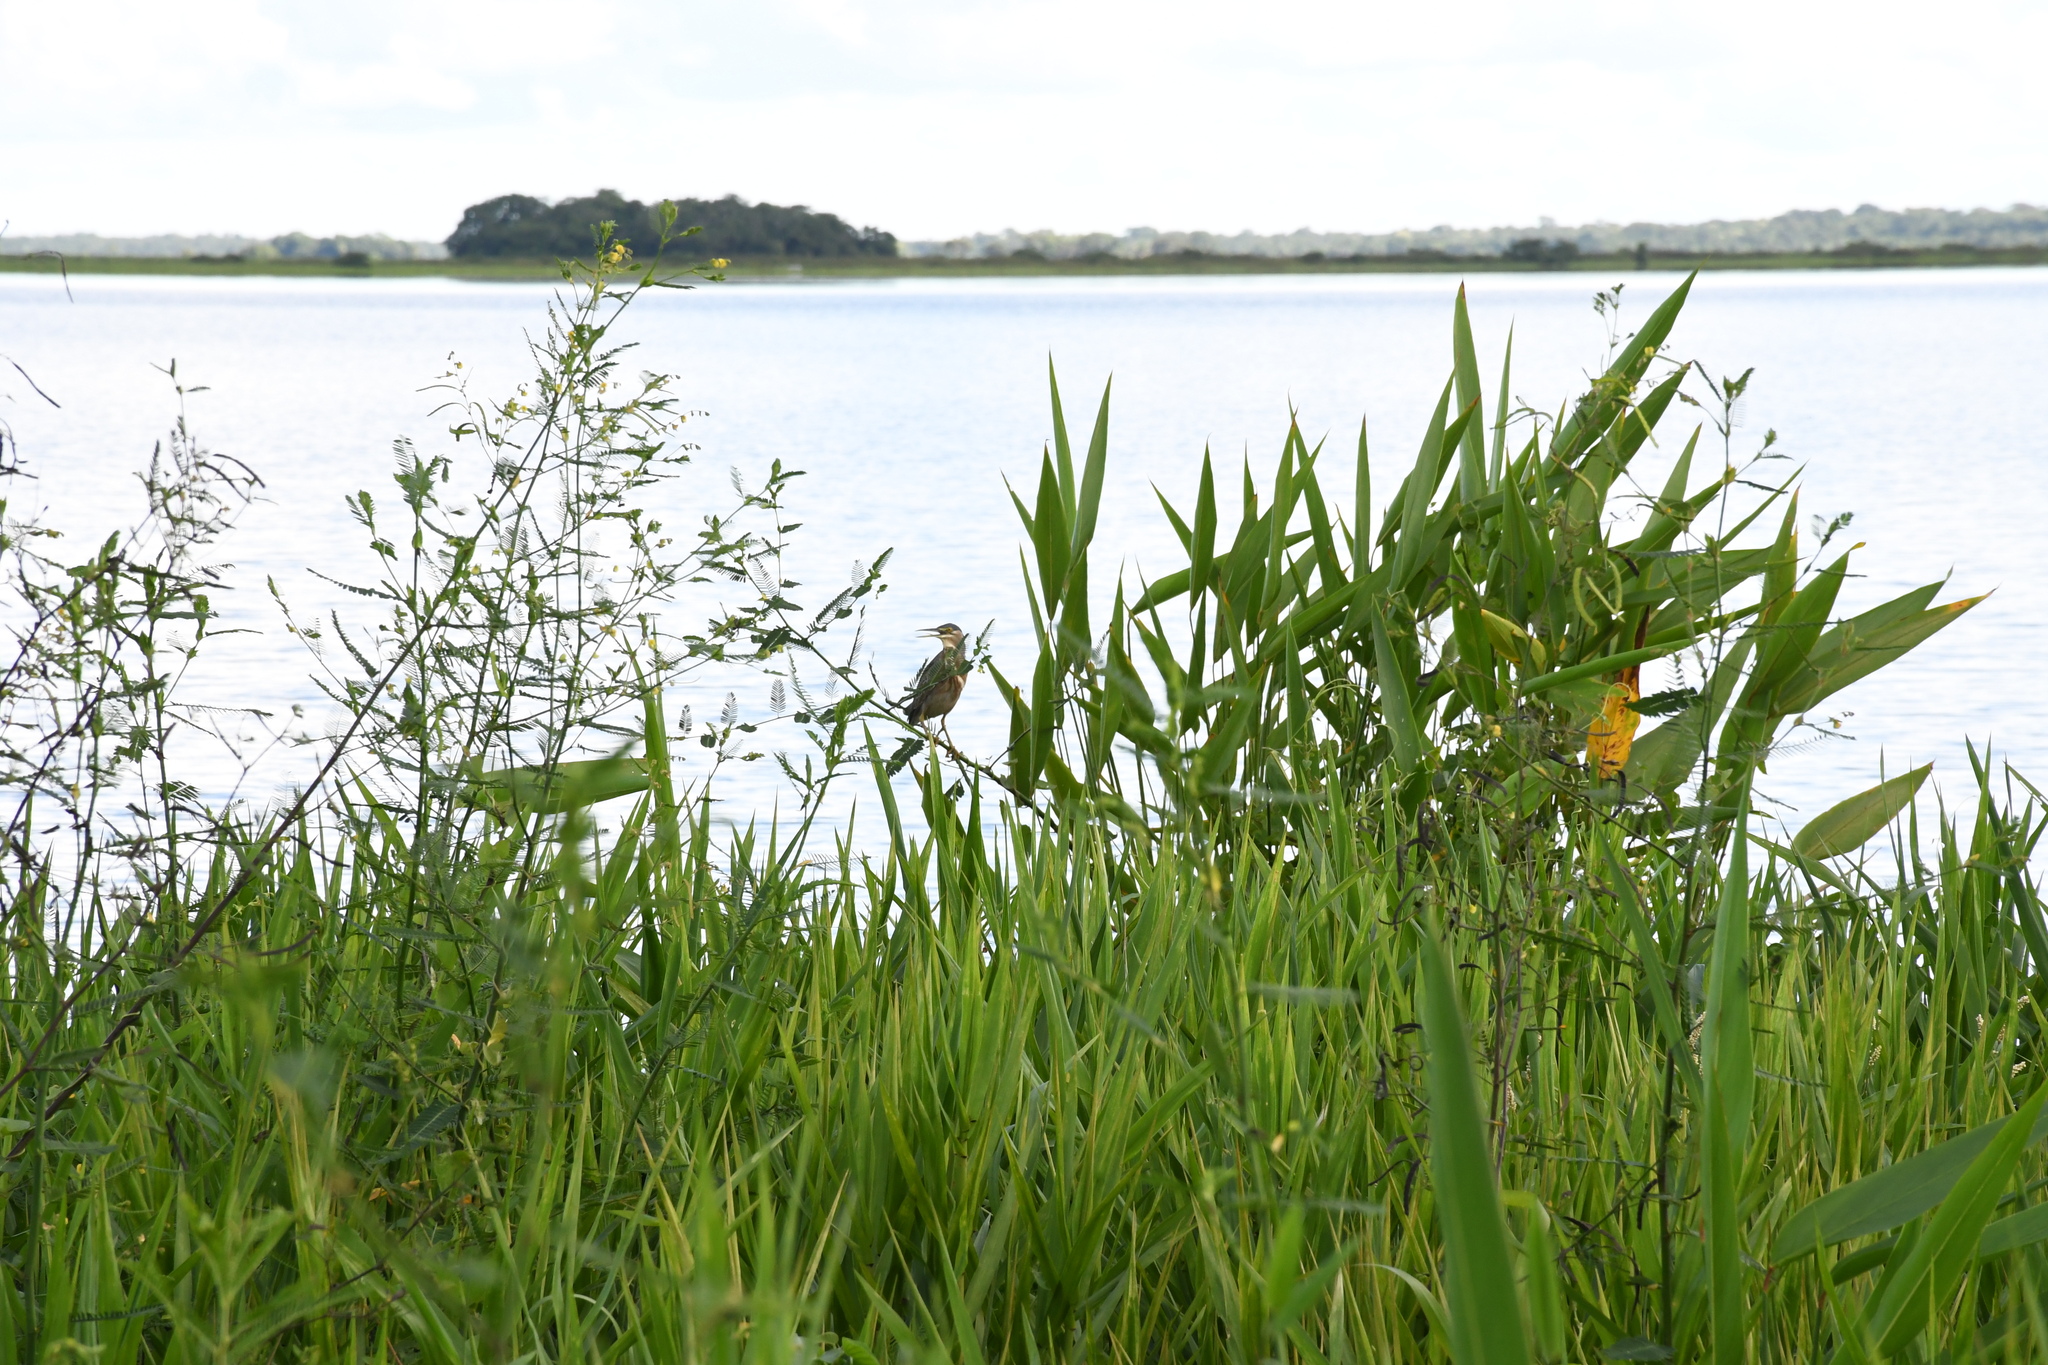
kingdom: Animalia
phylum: Chordata
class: Aves
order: Pelecaniformes
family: Ardeidae
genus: Butorides
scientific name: Butorides striata
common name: Striated heron
